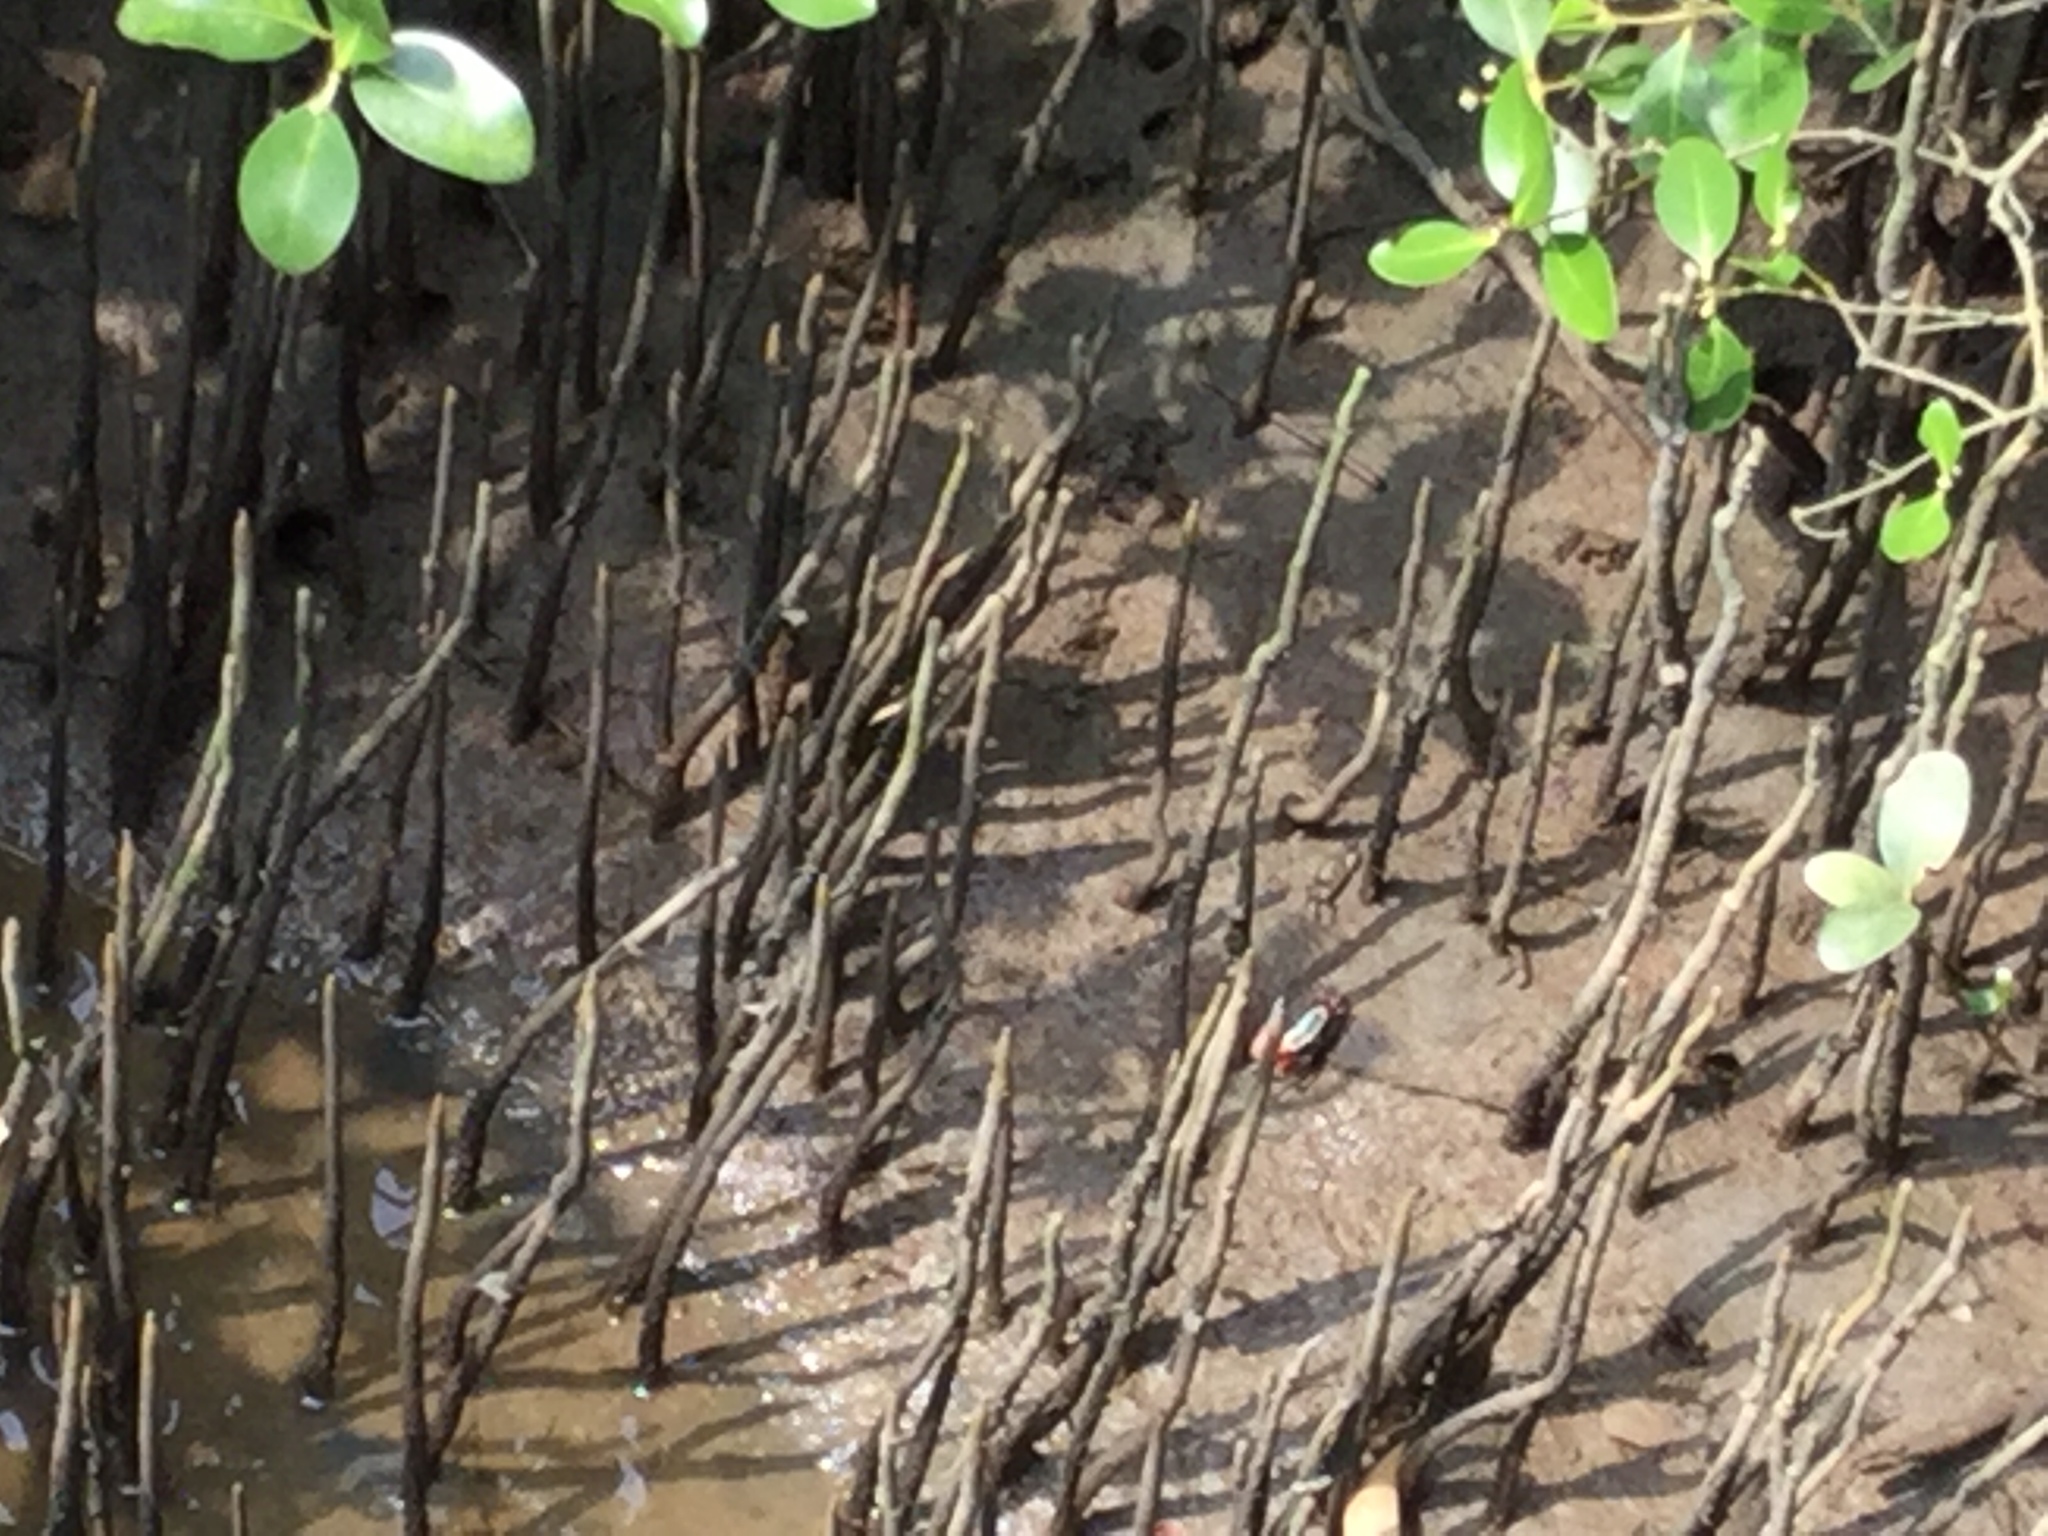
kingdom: Animalia
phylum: Arthropoda
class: Malacostraca
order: Decapoda
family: Ocypodidae
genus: Tubuca
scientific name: Tubuca arcuata
